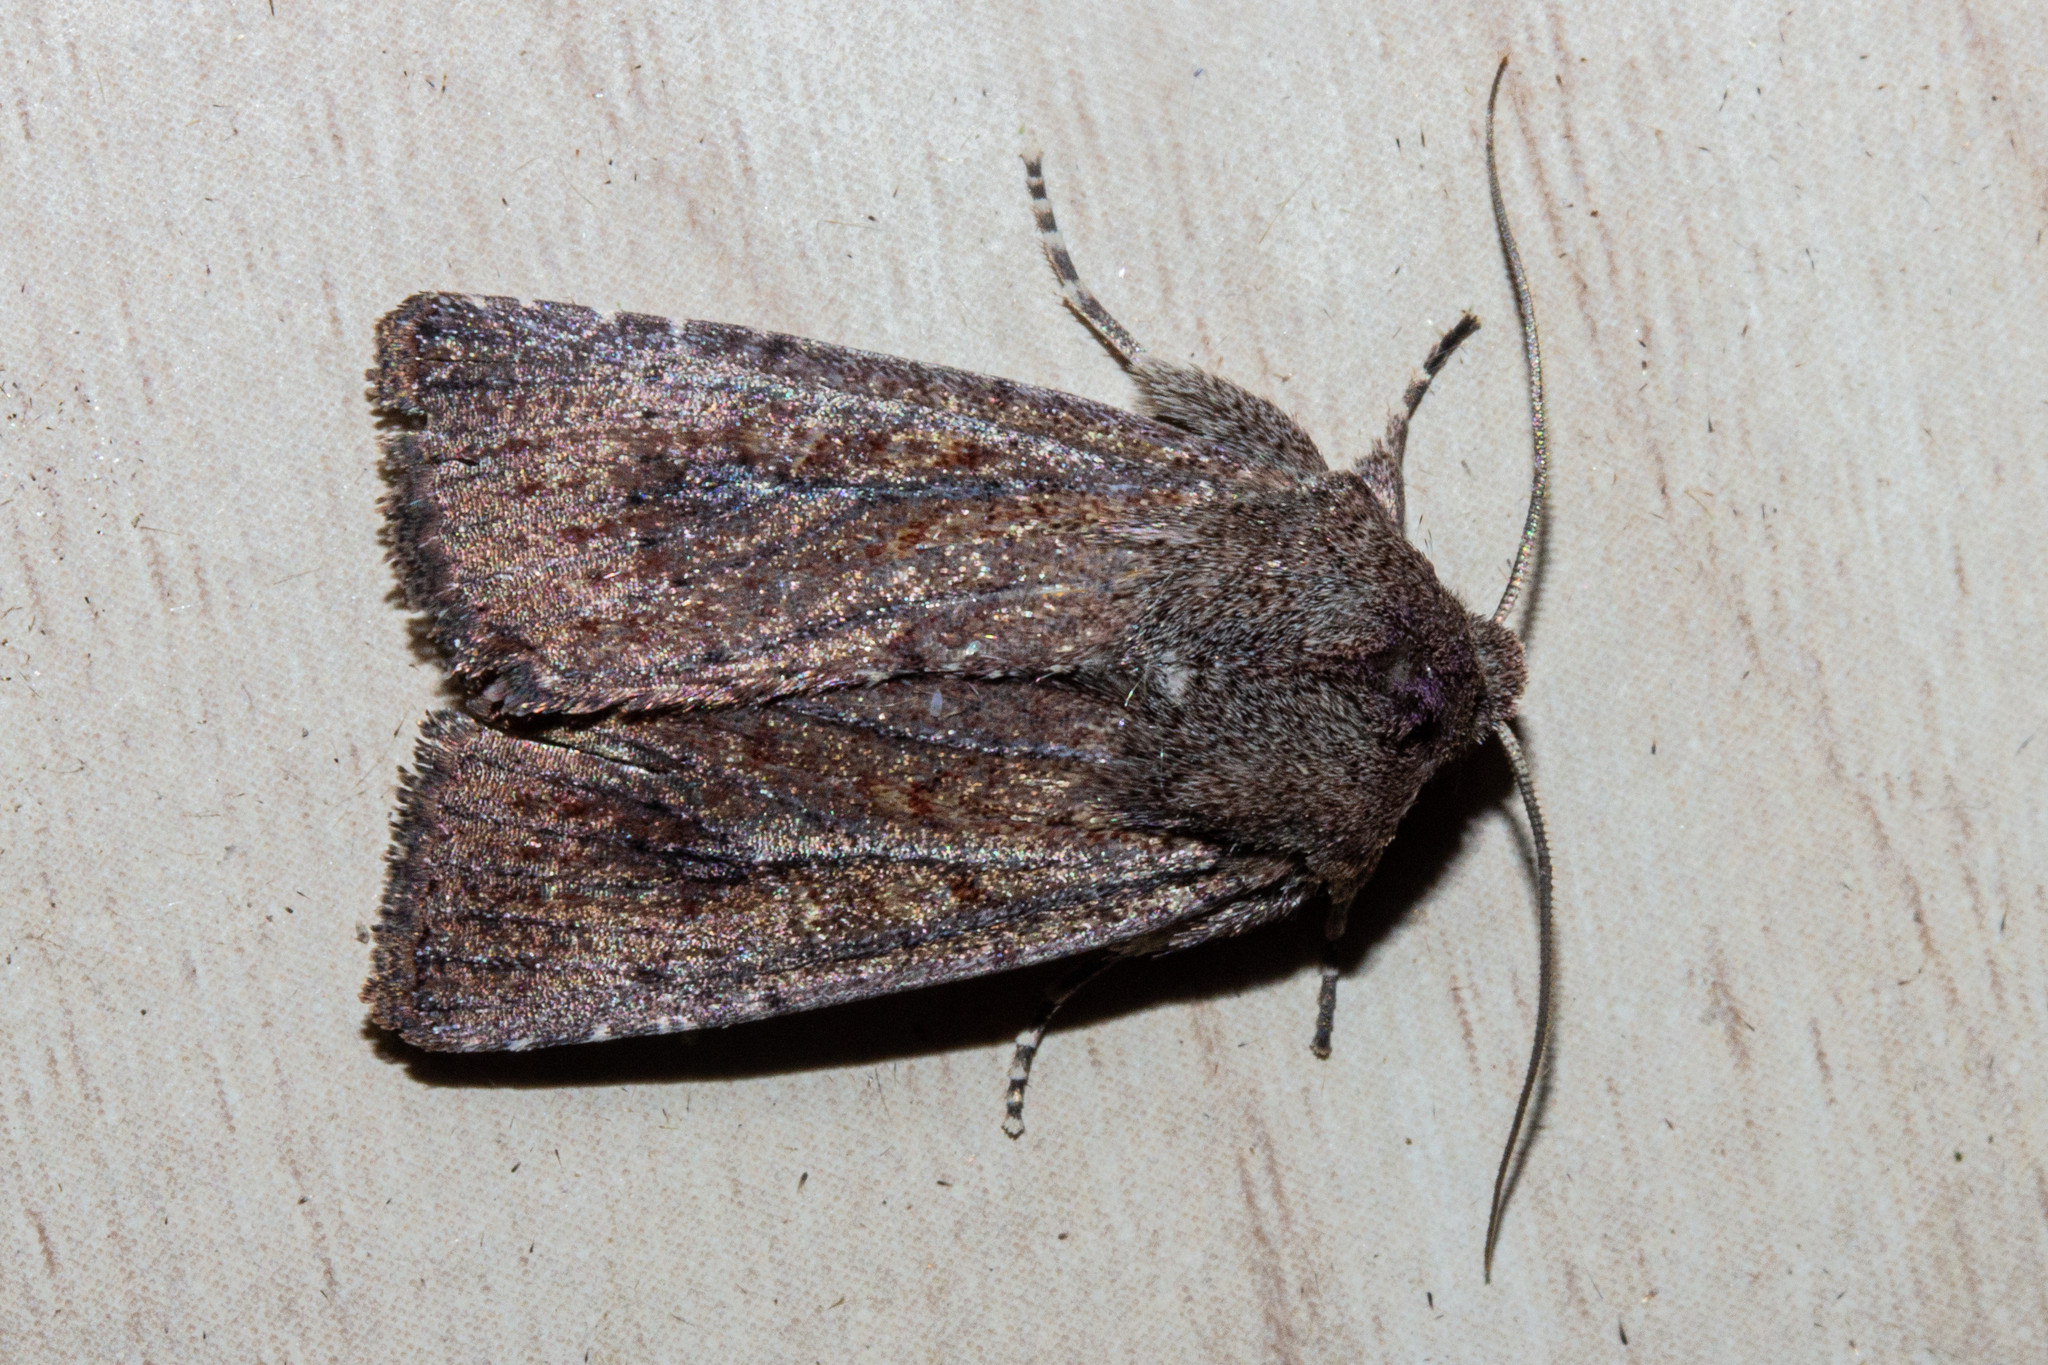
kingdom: Animalia
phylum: Arthropoda
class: Insecta
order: Lepidoptera
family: Noctuidae
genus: Ichneutica
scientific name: Ichneutica
